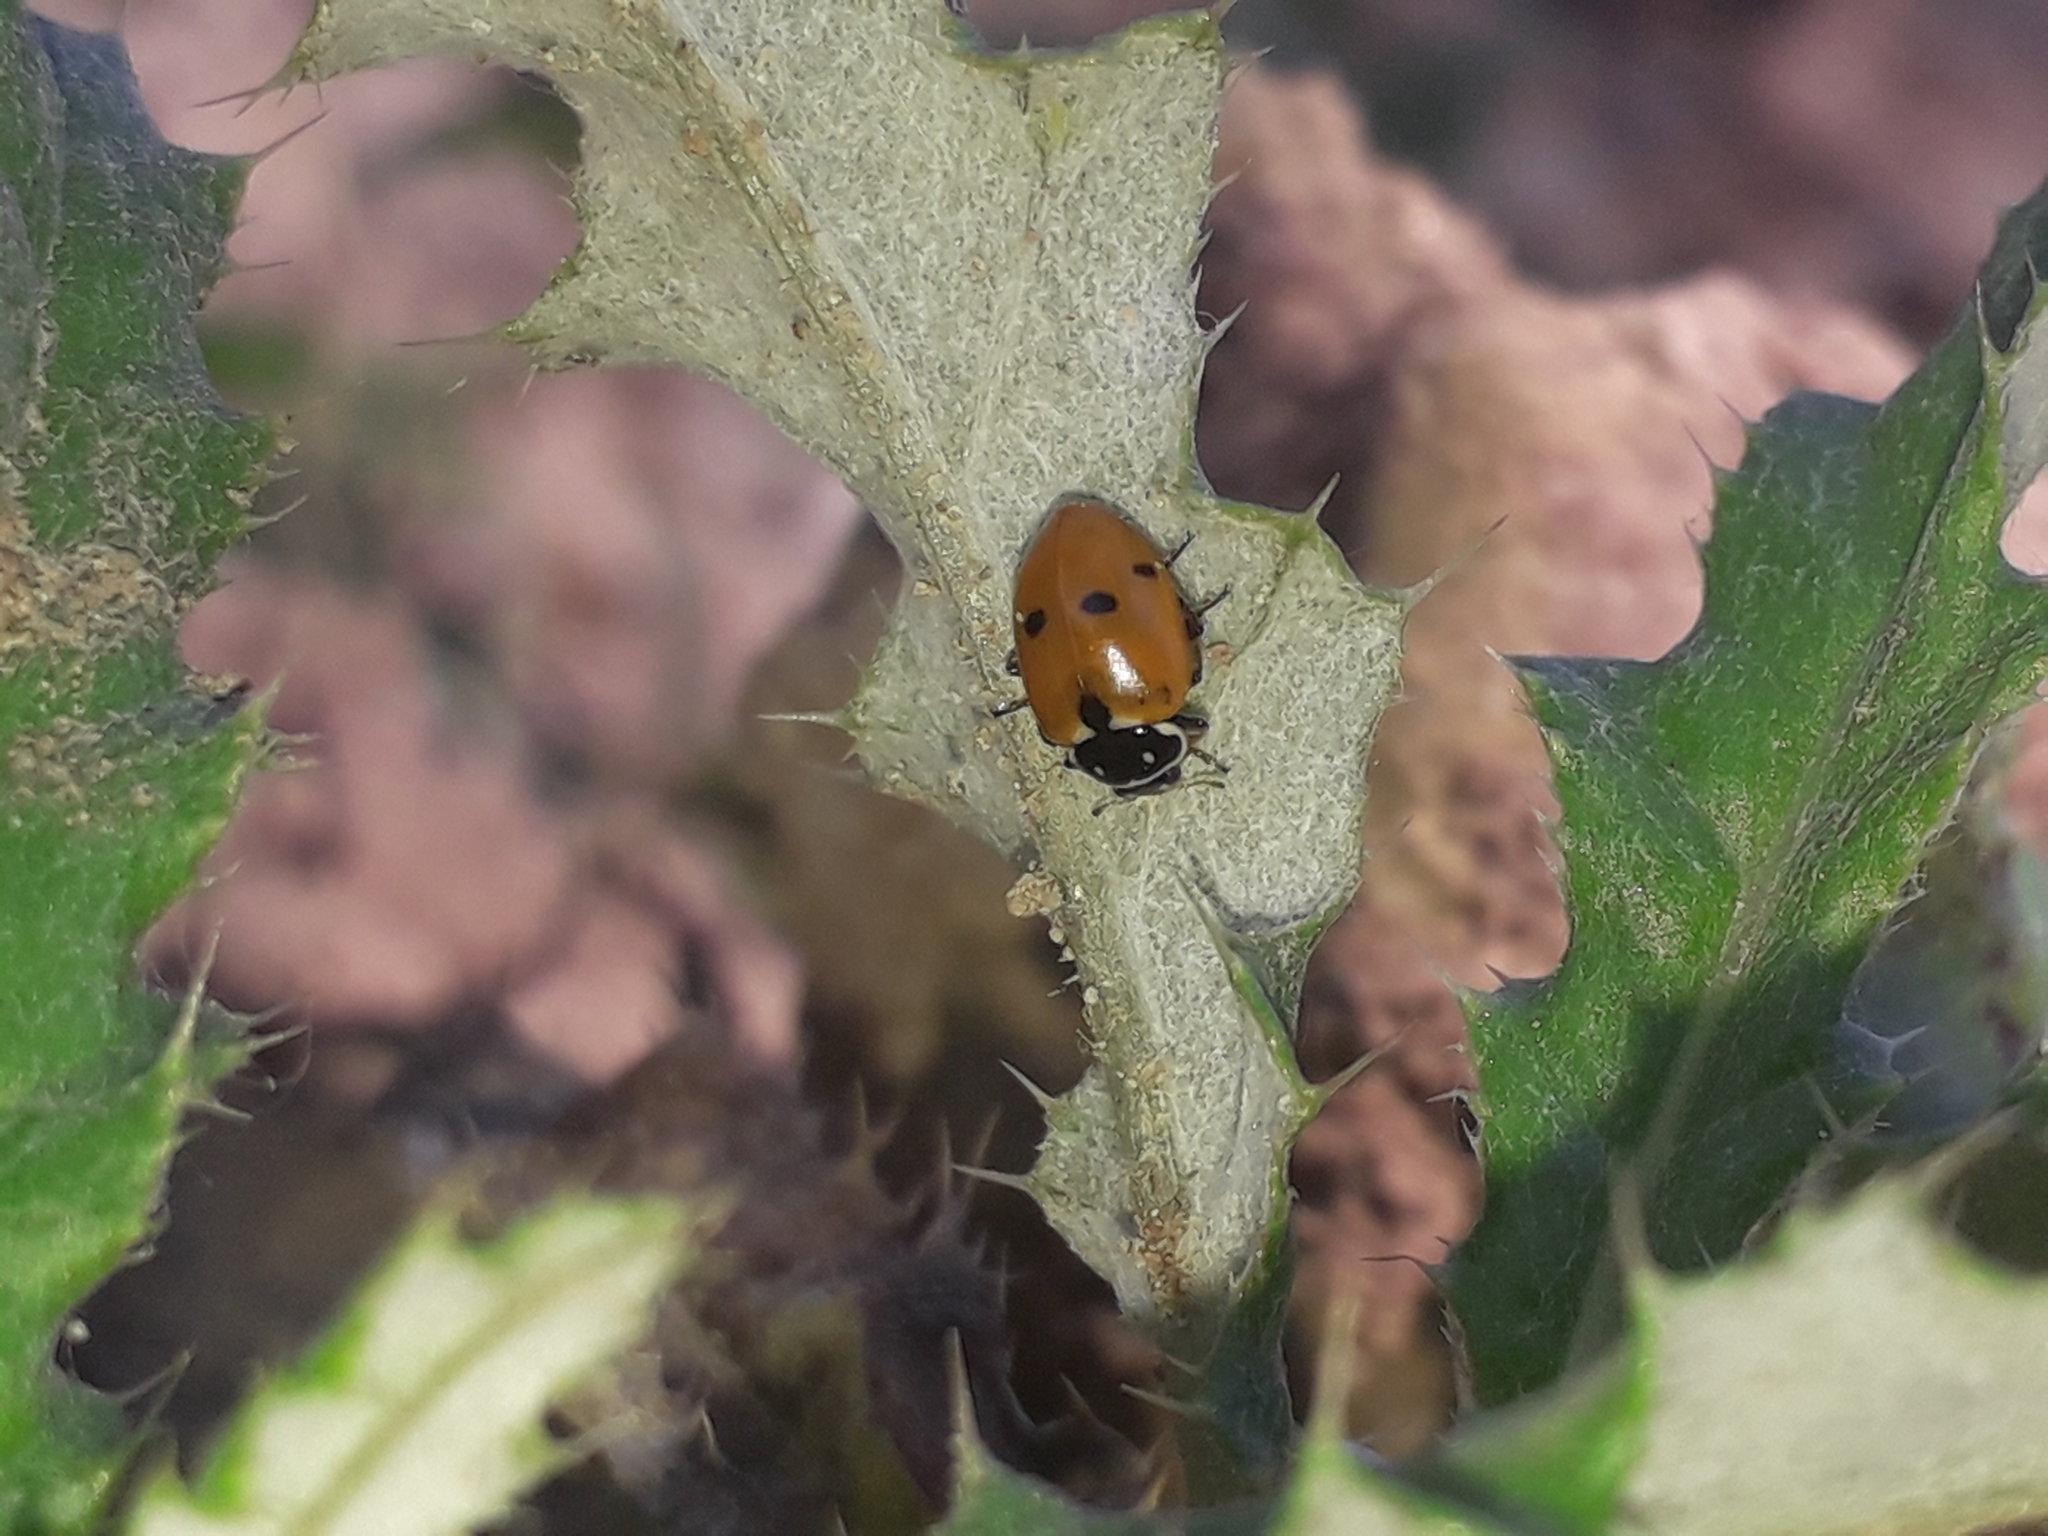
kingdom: Animalia
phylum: Arthropoda
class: Insecta
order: Coleoptera
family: Coccinellidae
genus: Hippodamia
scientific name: Hippodamia variegata
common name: Ladybird beetle
